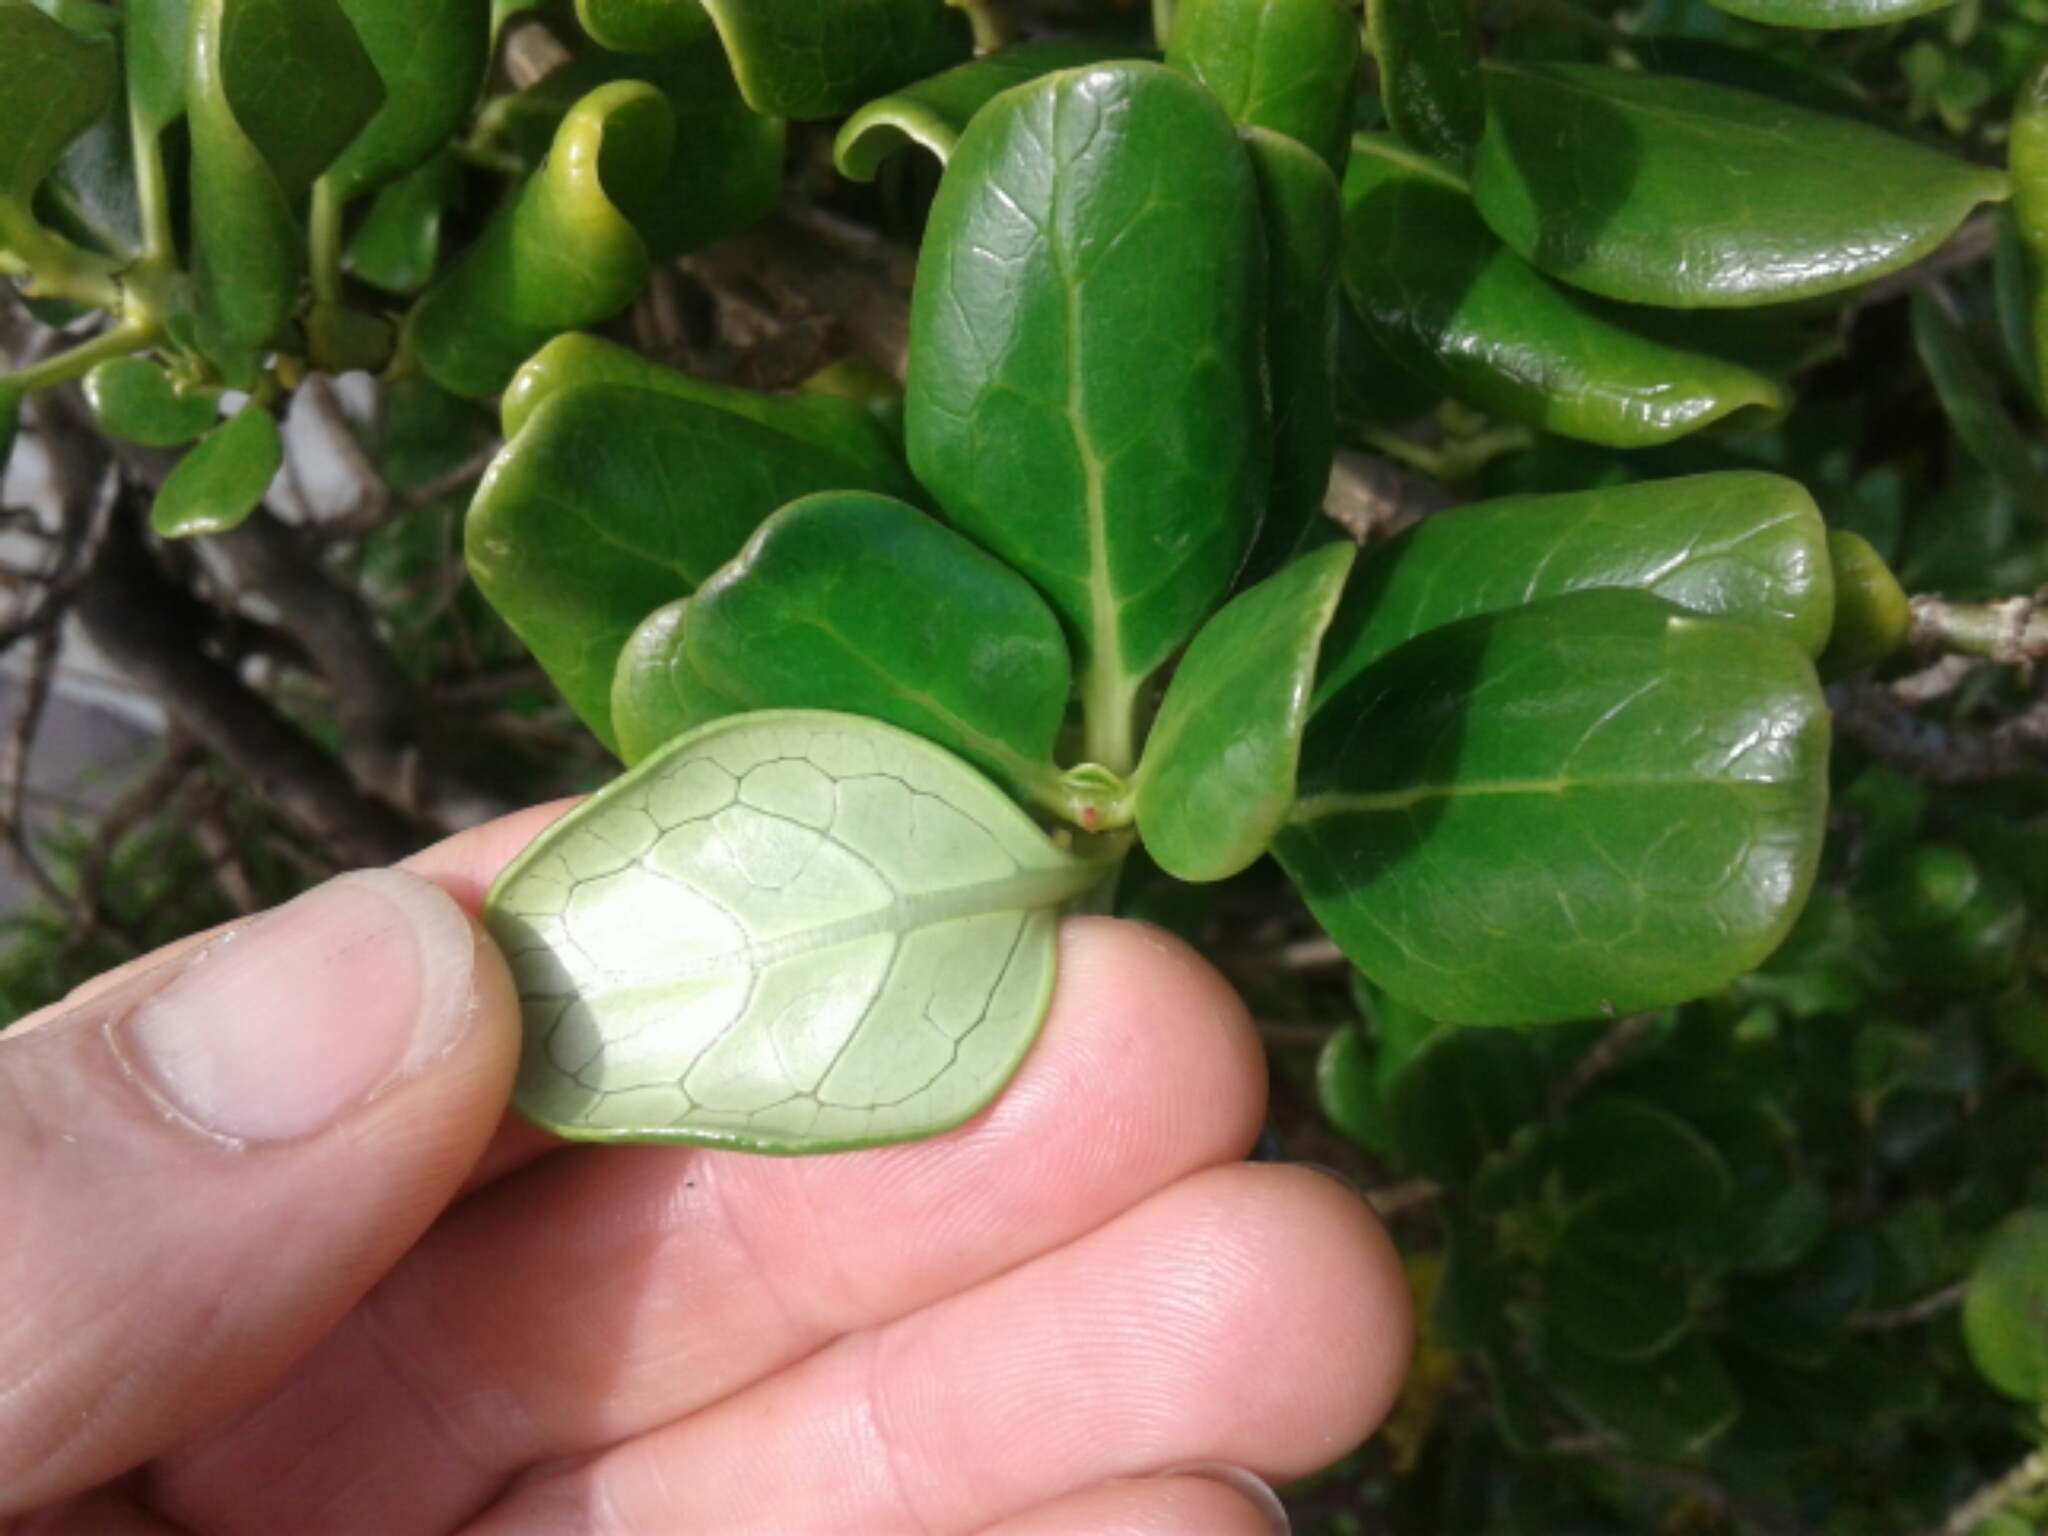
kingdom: Plantae
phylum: Tracheophyta
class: Magnoliopsida
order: Gentianales
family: Rubiaceae
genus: Coprosma
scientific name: Coprosma repens
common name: Tree bedstraw
